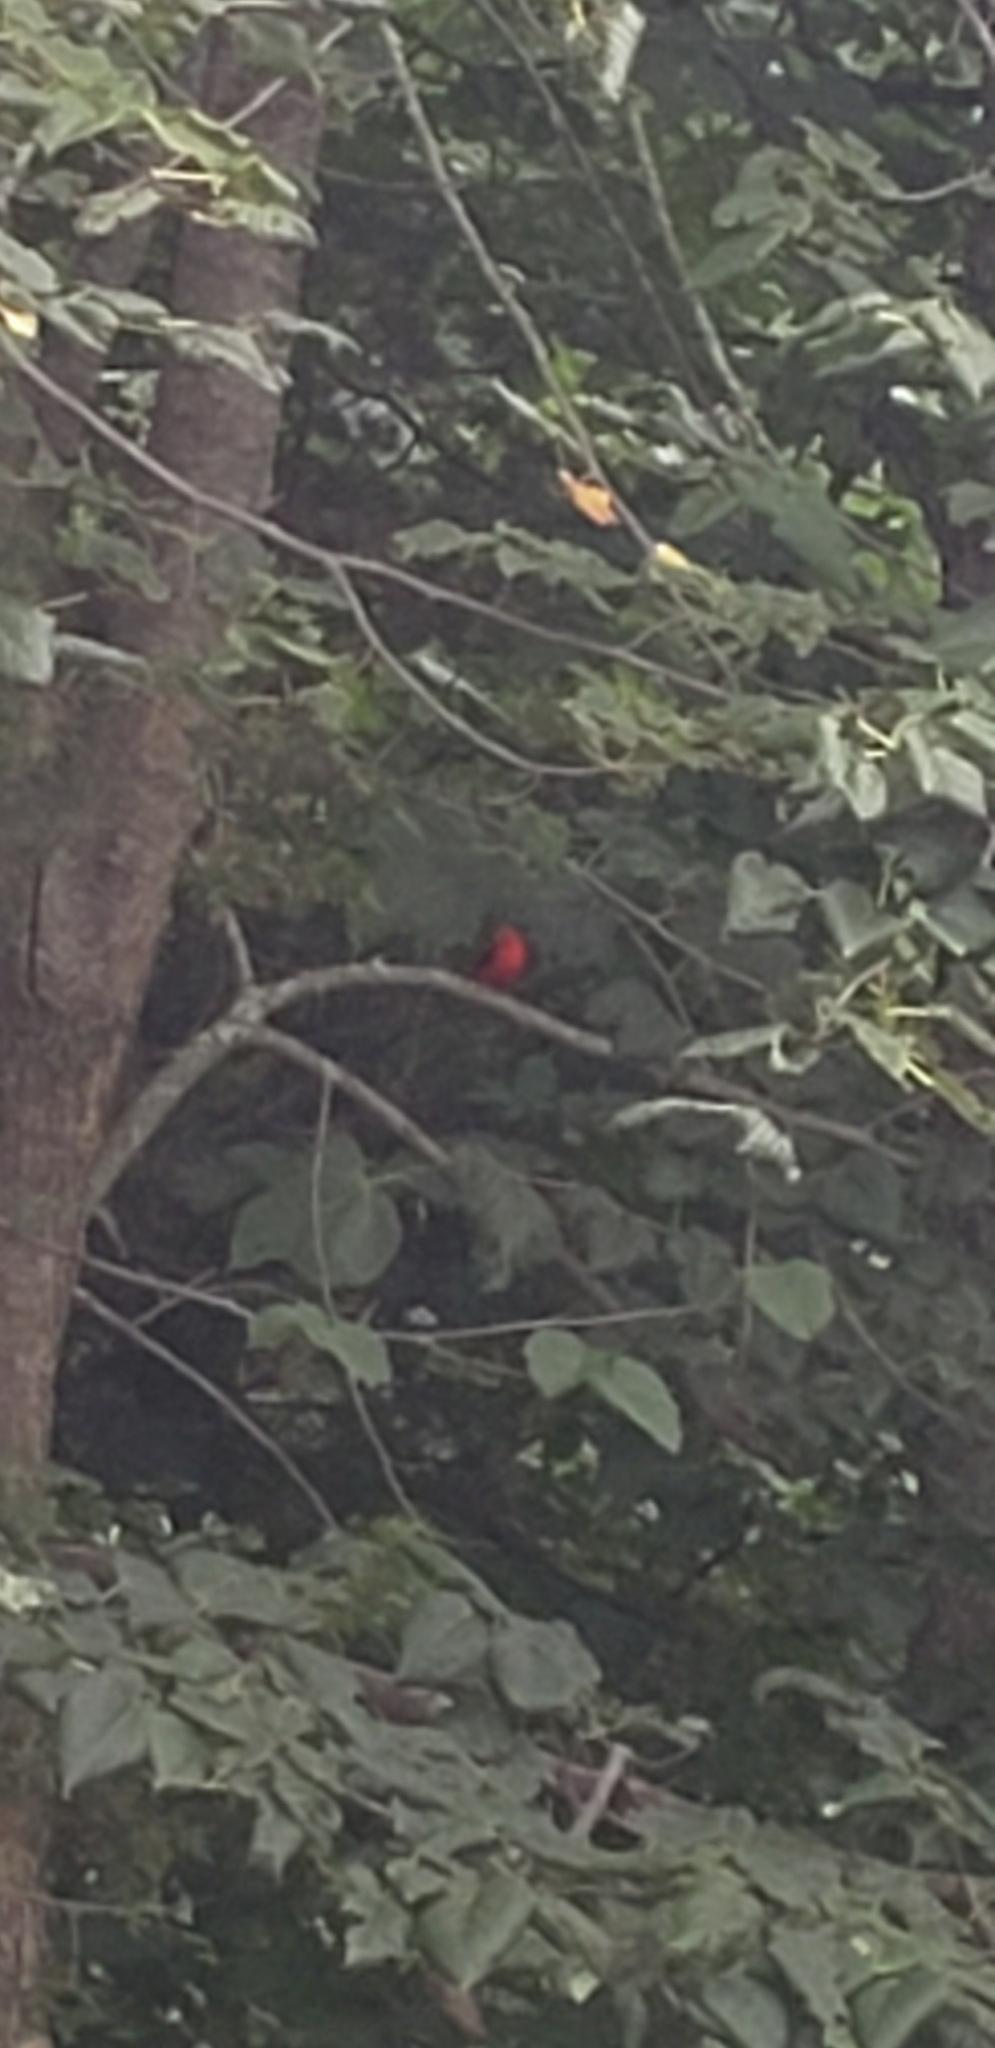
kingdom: Animalia
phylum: Chordata
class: Aves
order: Passeriformes
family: Cardinalidae
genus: Piranga
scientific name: Piranga olivacea
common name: Scarlet tanager
